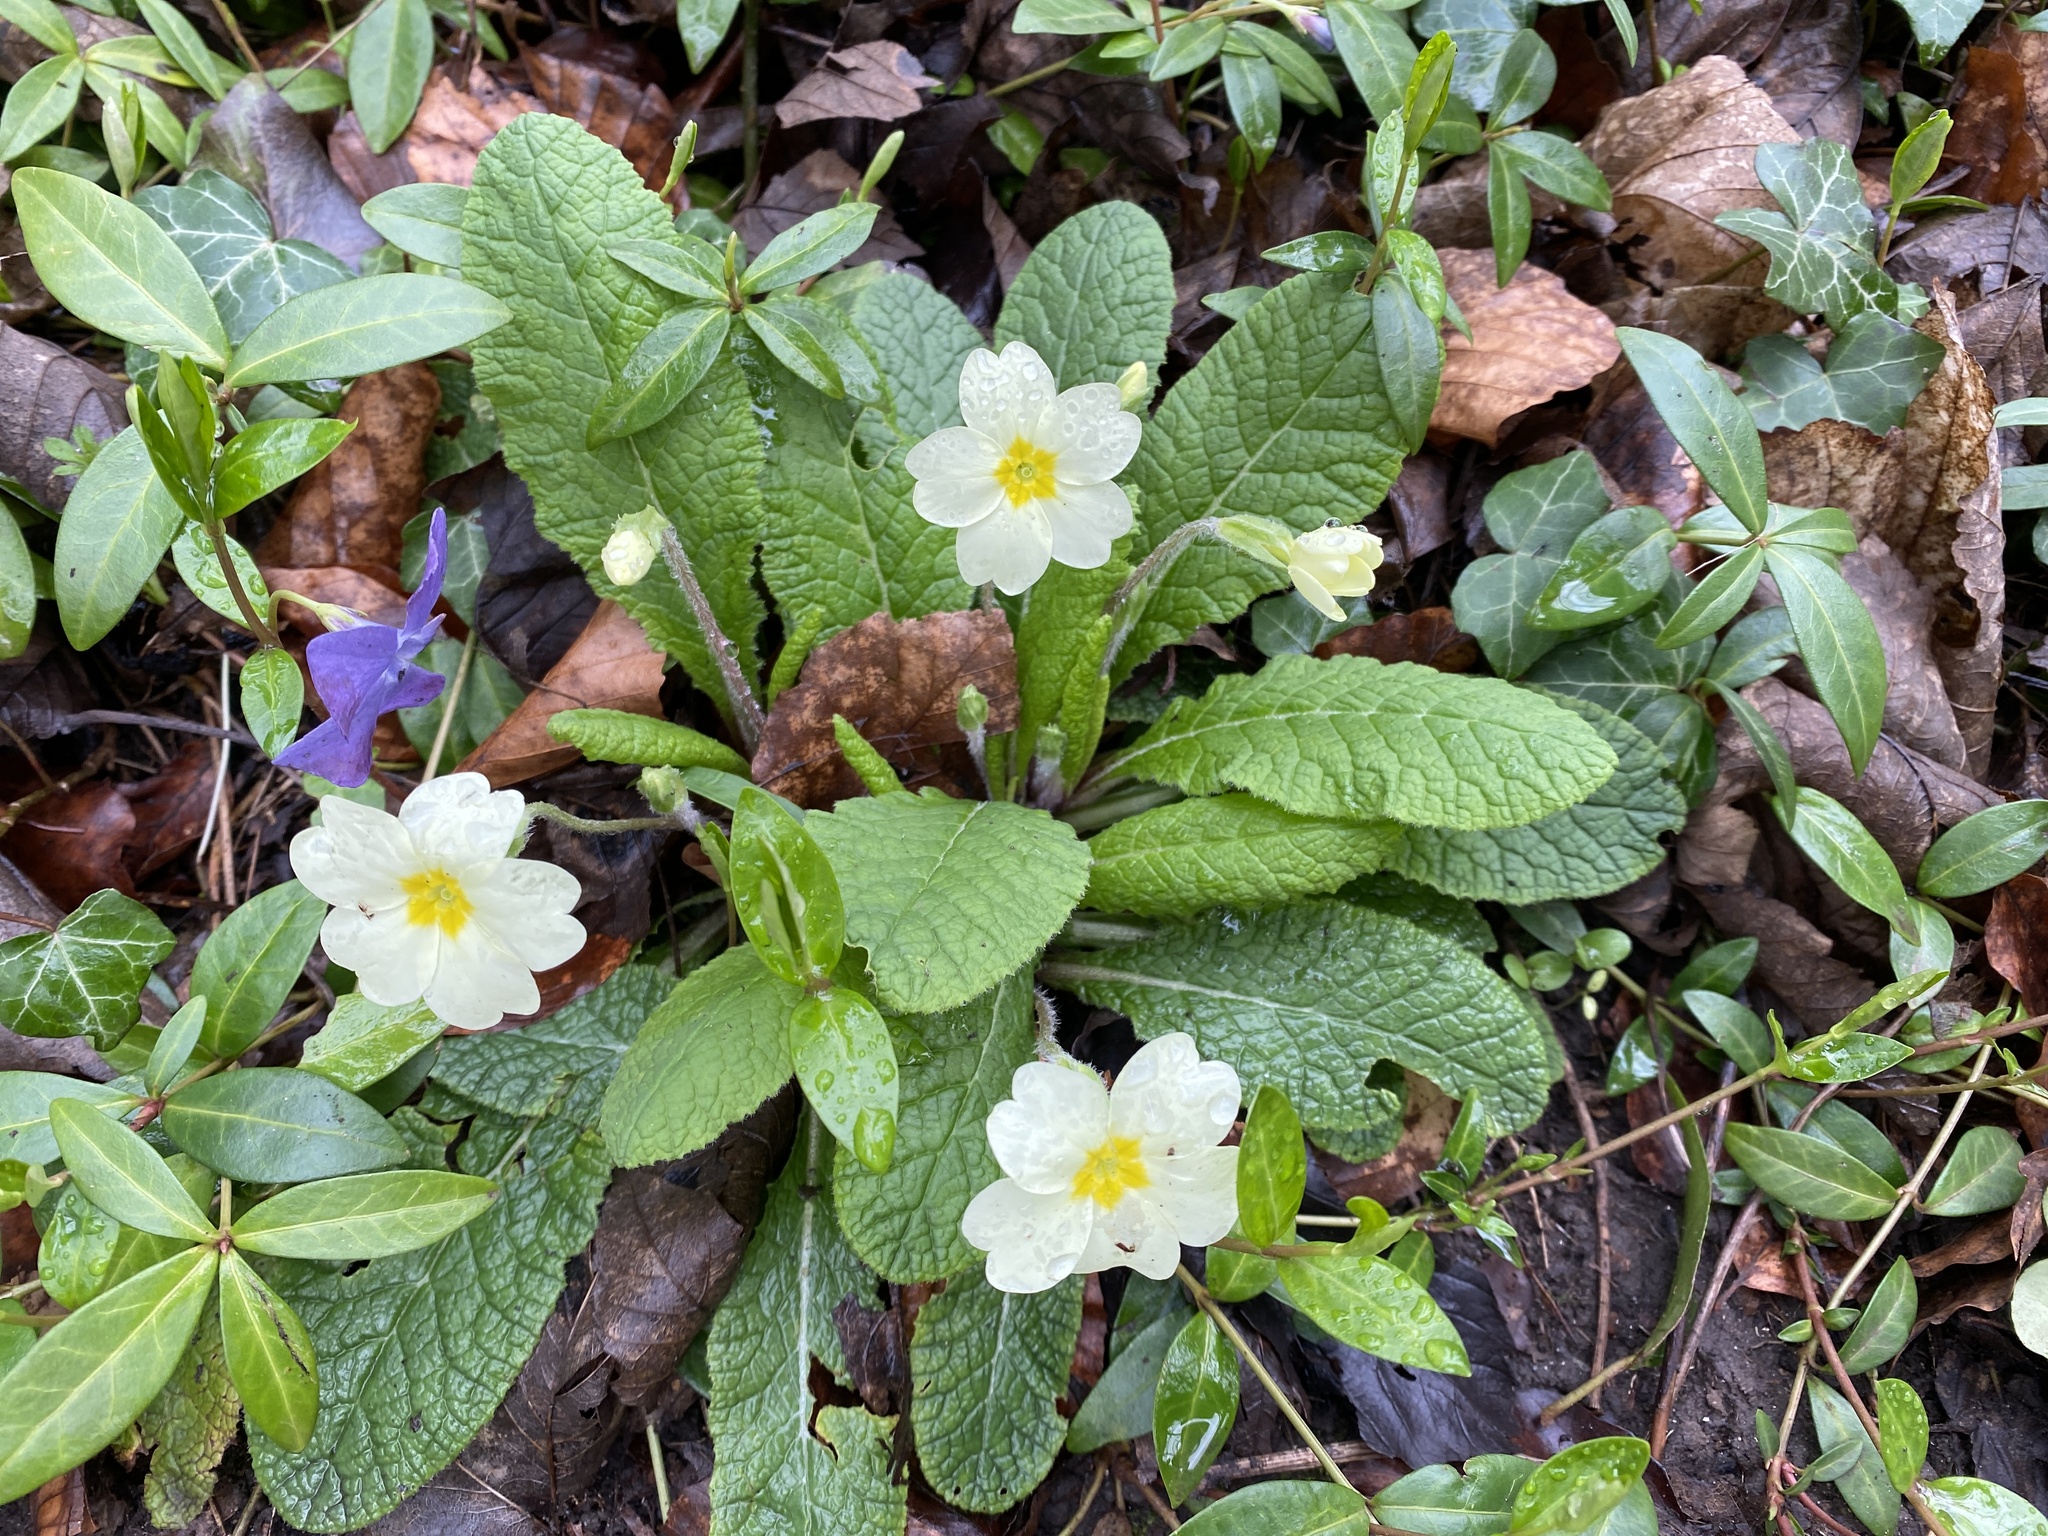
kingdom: Plantae
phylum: Tracheophyta
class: Magnoliopsida
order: Ericales
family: Primulaceae
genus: Primula
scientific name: Primula vulgaris
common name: Primrose
